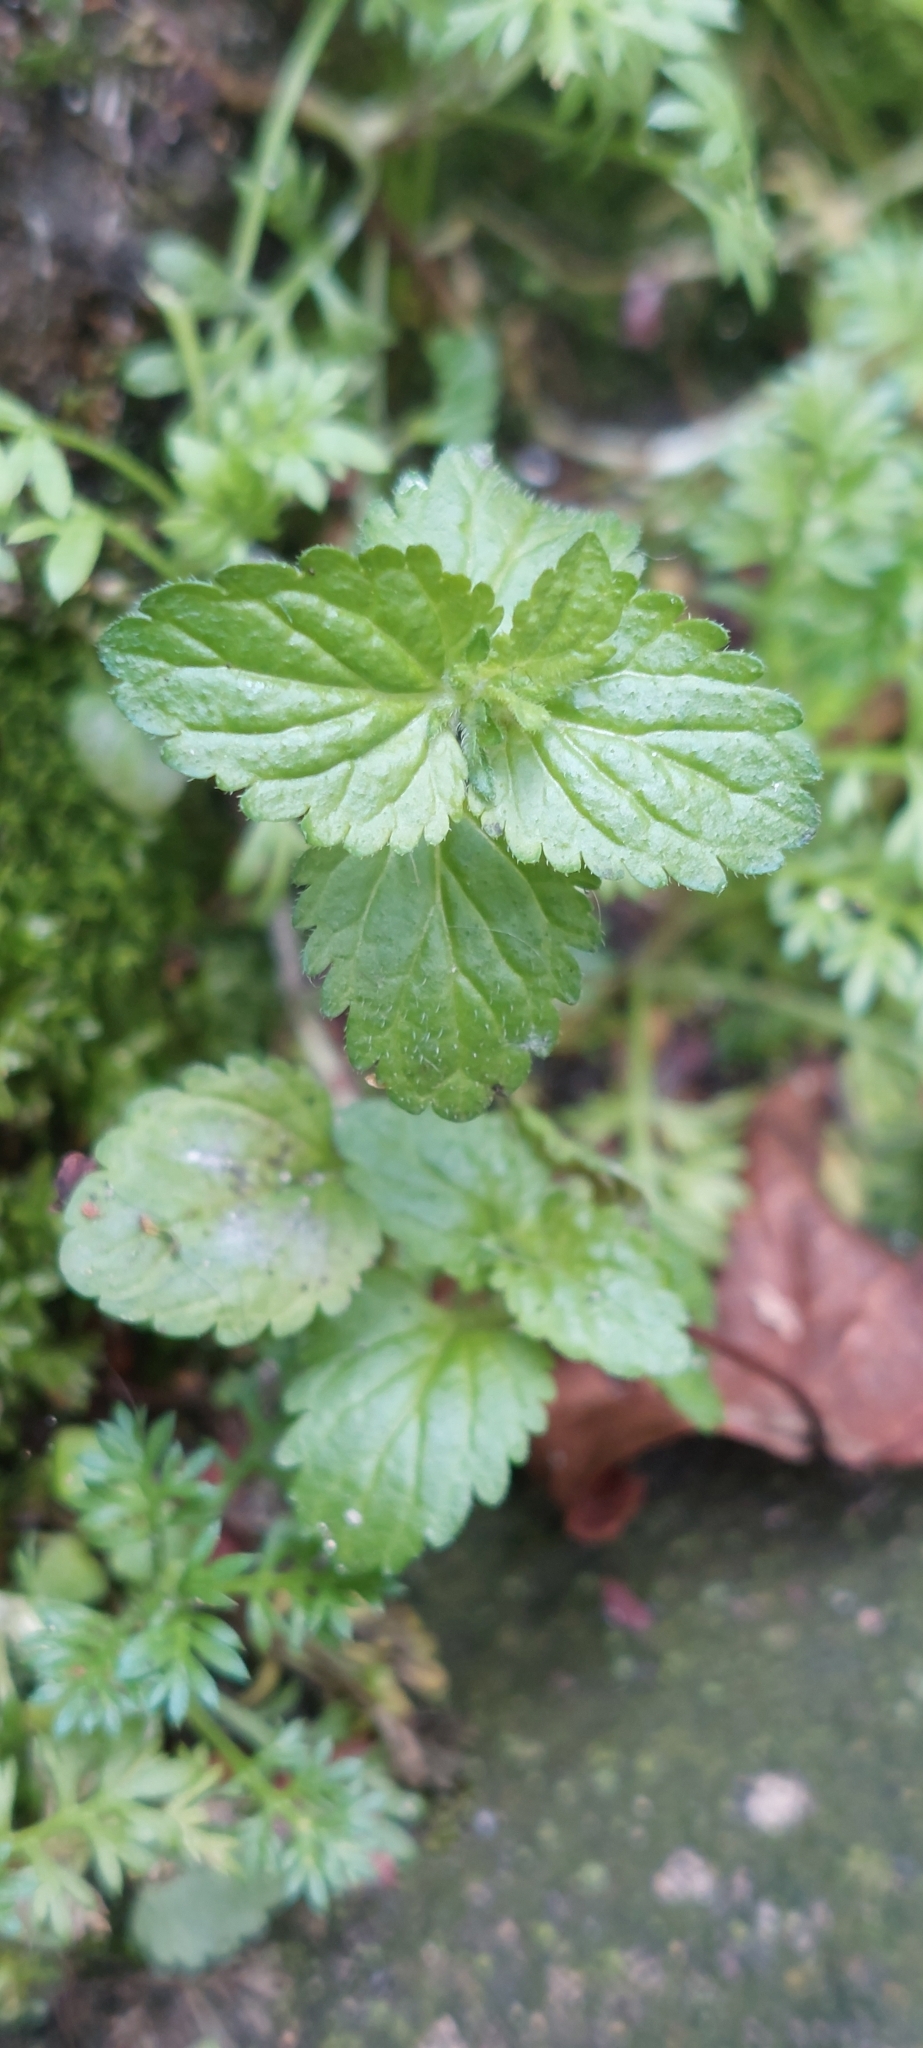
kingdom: Plantae
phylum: Tracheophyta
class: Magnoliopsida
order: Lamiales
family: Plantaginaceae
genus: Veronica
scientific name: Veronica javanica
